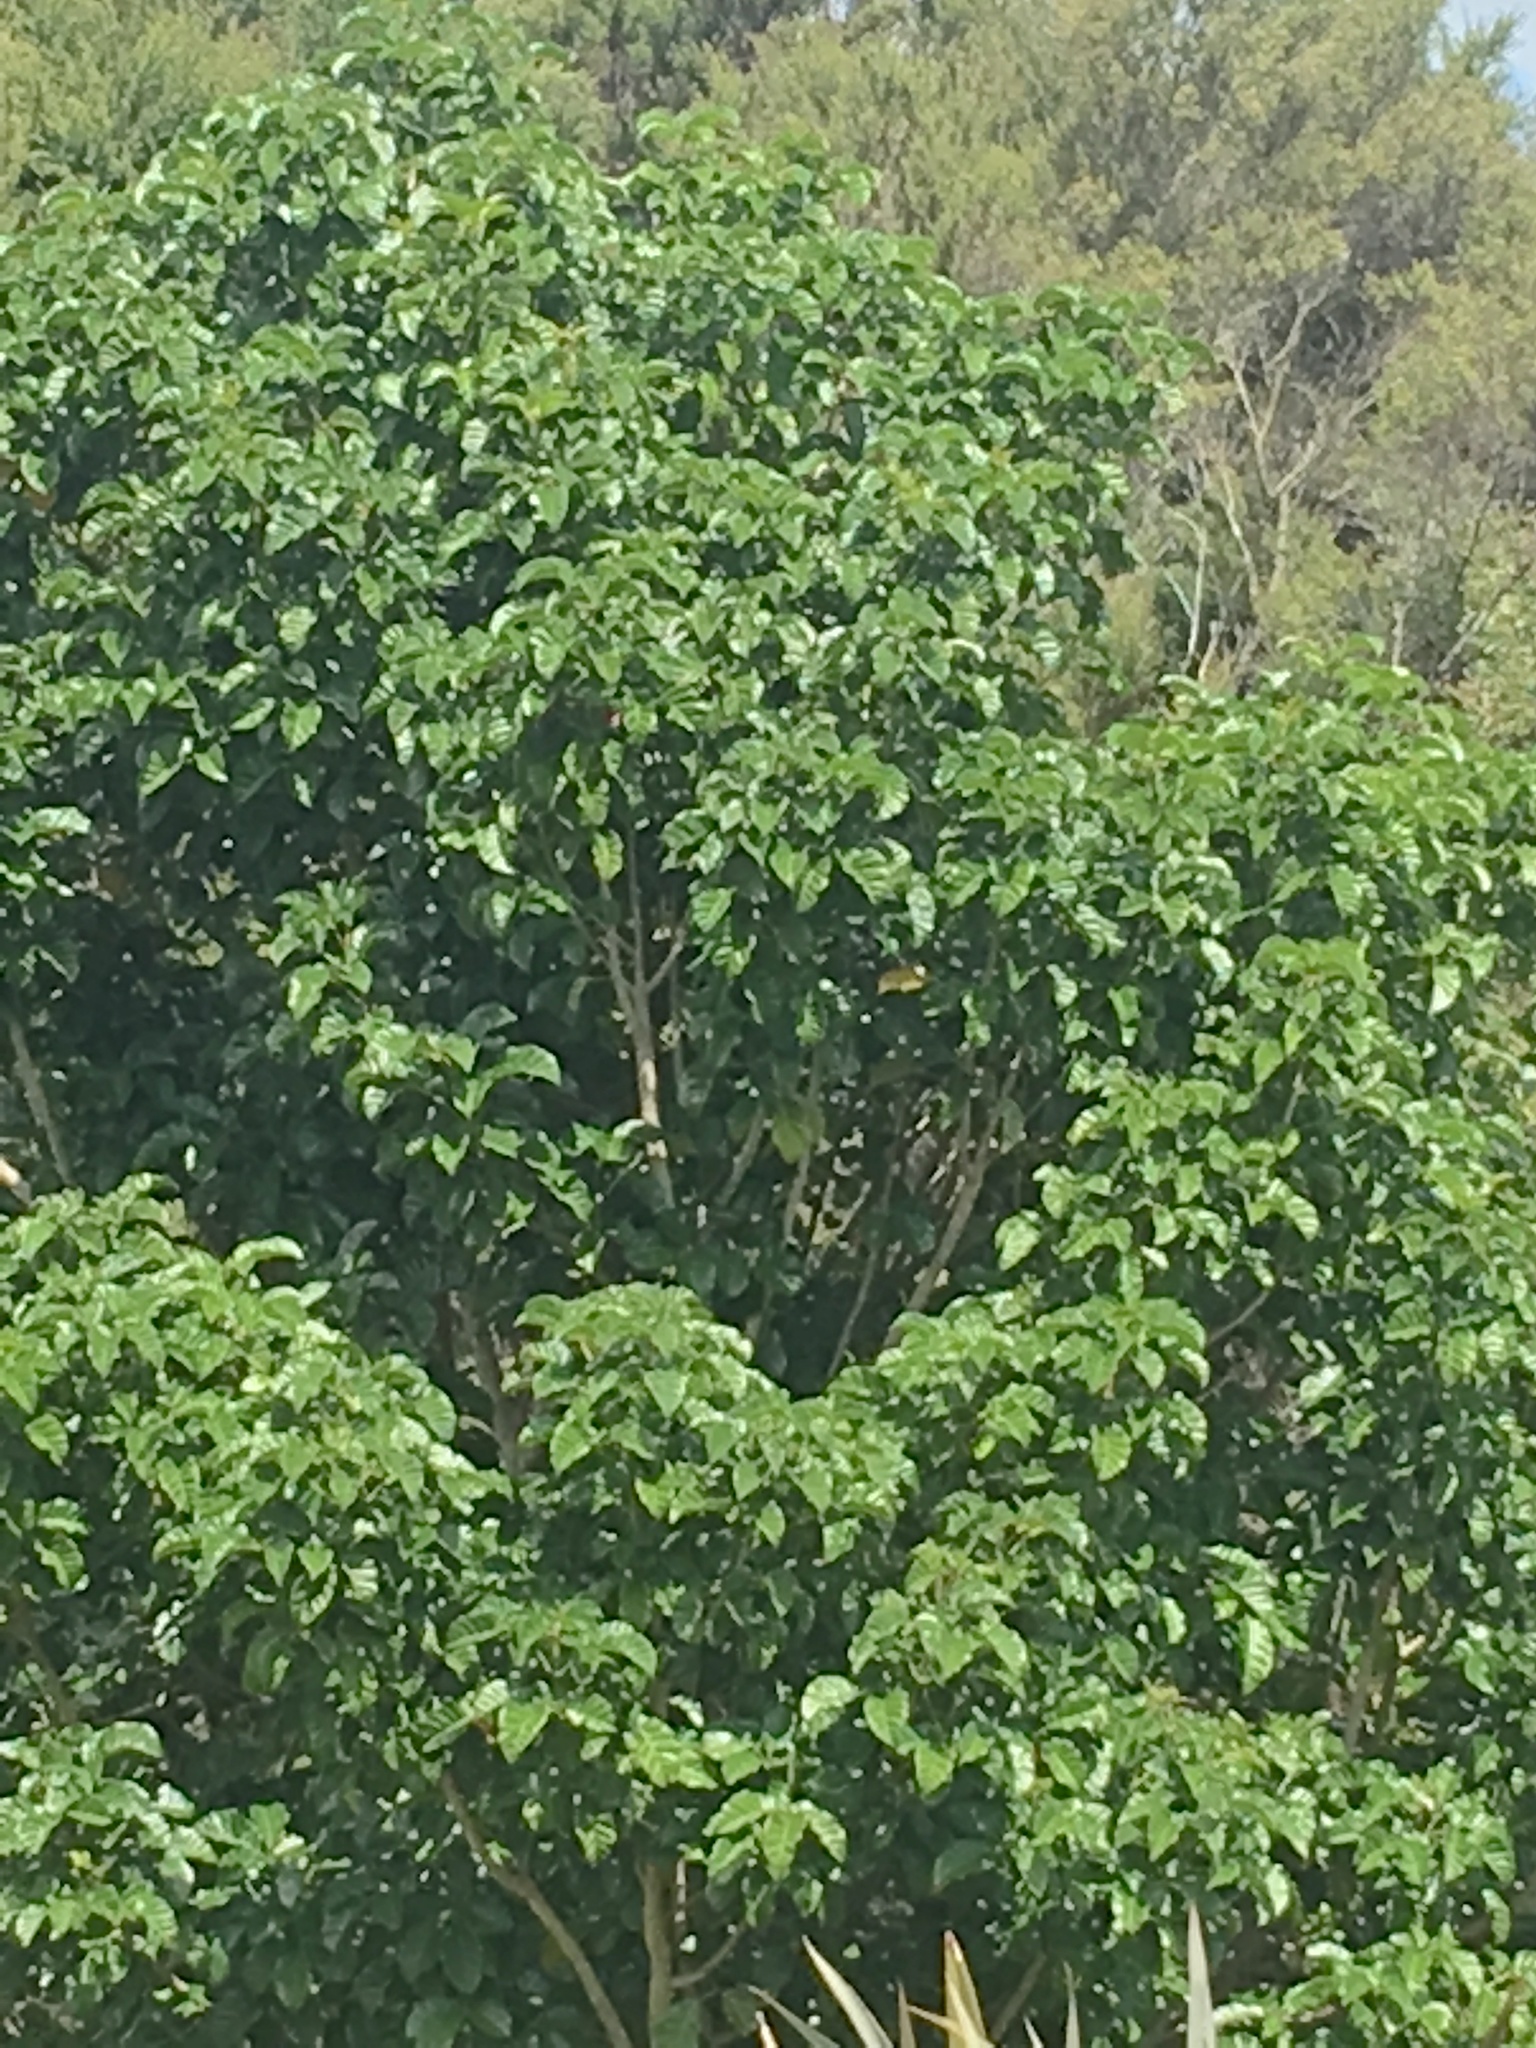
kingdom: Plantae
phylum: Tracheophyta
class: Magnoliopsida
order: Lamiales
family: Lamiaceae
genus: Vitex
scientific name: Vitex lucens
